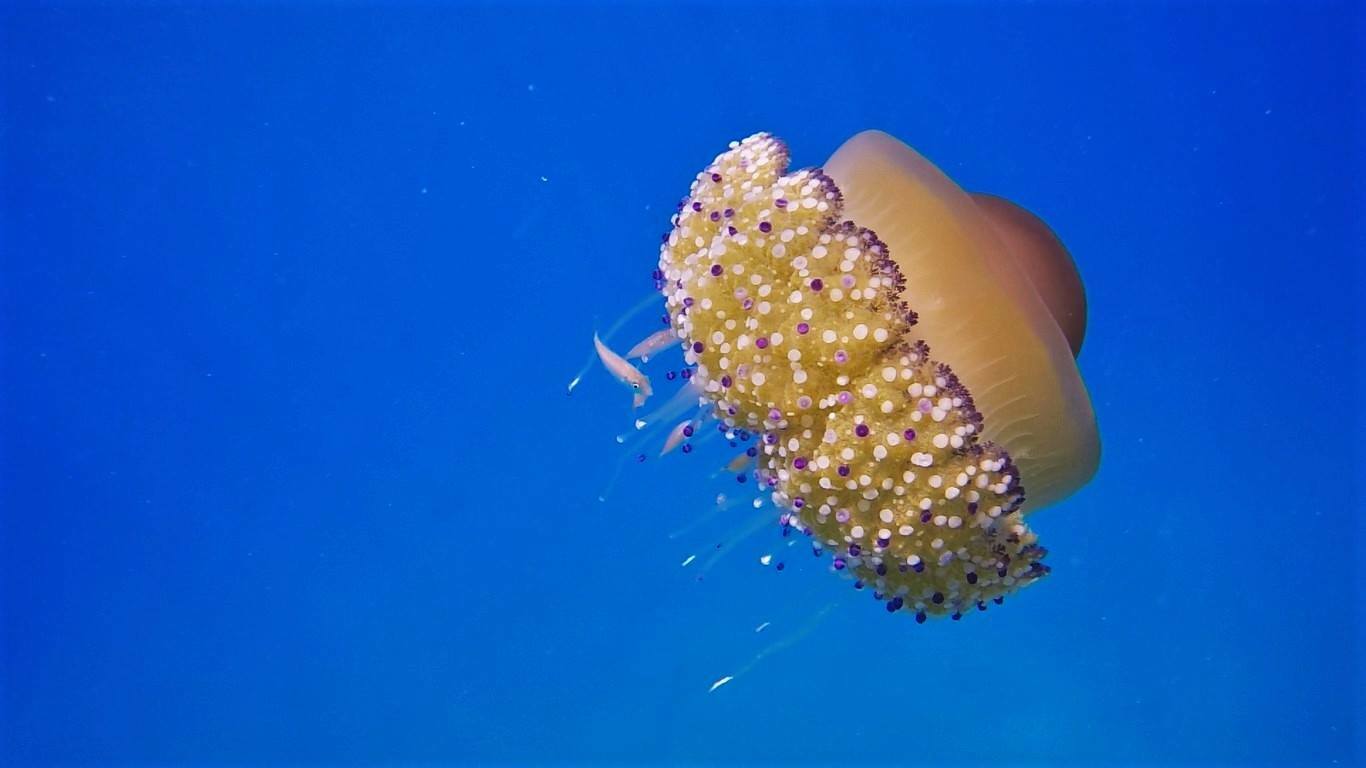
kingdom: Animalia
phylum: Cnidaria
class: Scyphozoa
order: Rhizostomeae
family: Cepheidae
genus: Cotylorhiza
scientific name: Cotylorhiza tuberculata
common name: Mediterranean jelly
